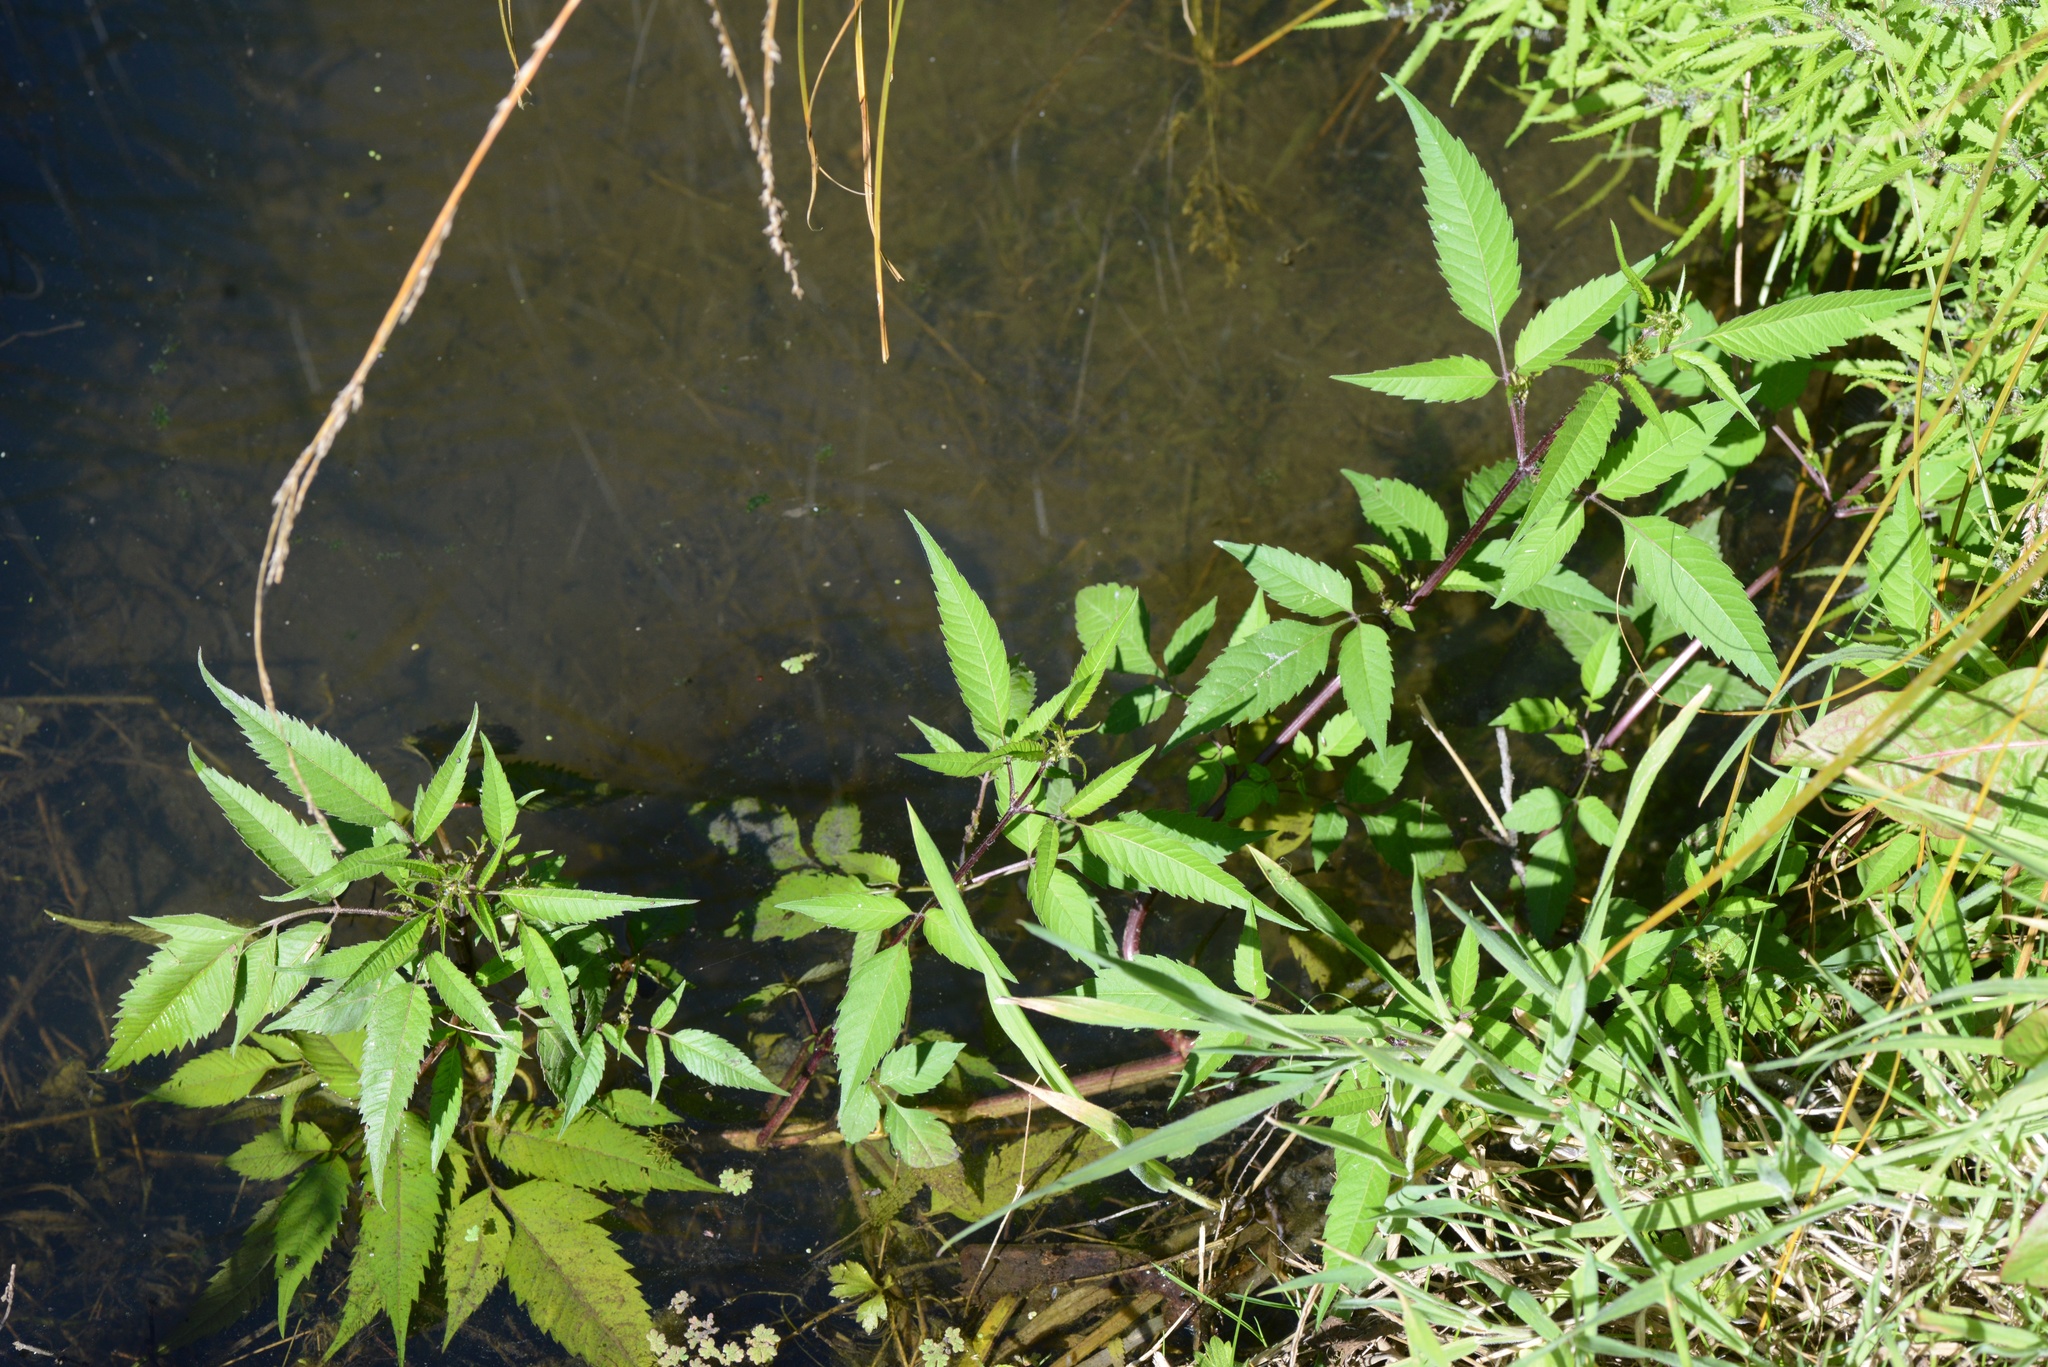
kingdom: Plantae
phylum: Tracheophyta
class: Magnoliopsida
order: Asterales
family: Asteraceae
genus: Bidens
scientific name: Bidens frondosa
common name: Beggarticks
